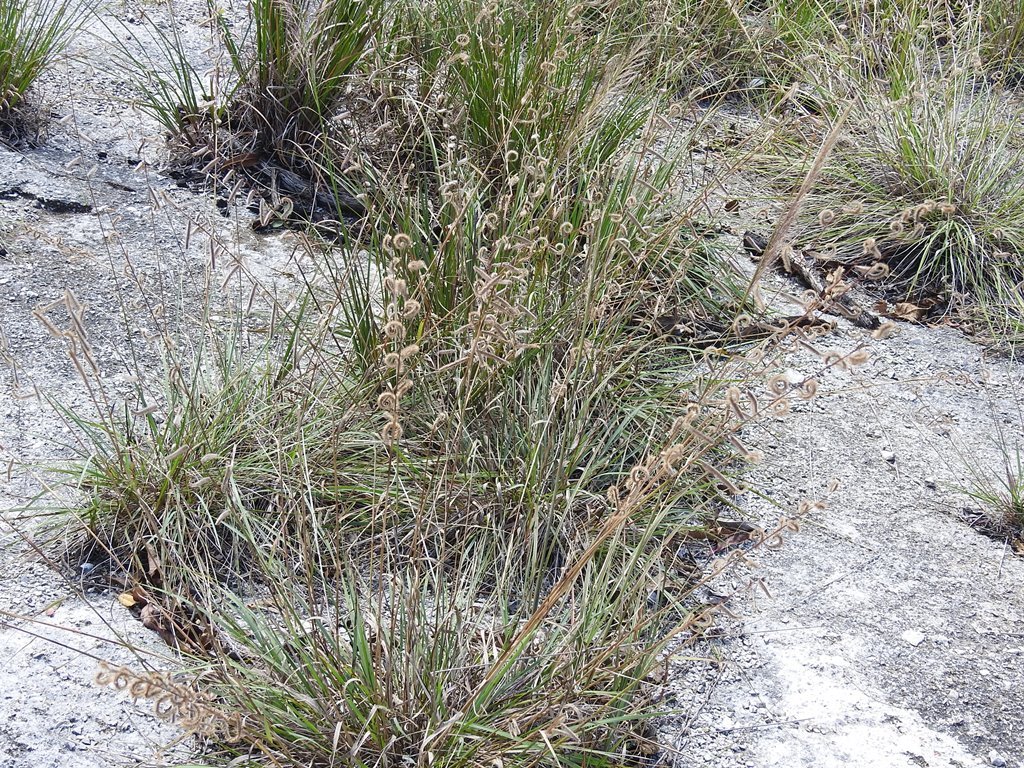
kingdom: Plantae
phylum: Tracheophyta
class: Liliopsida
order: Poales
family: Poaceae
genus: Bouteloua
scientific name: Bouteloua elata
